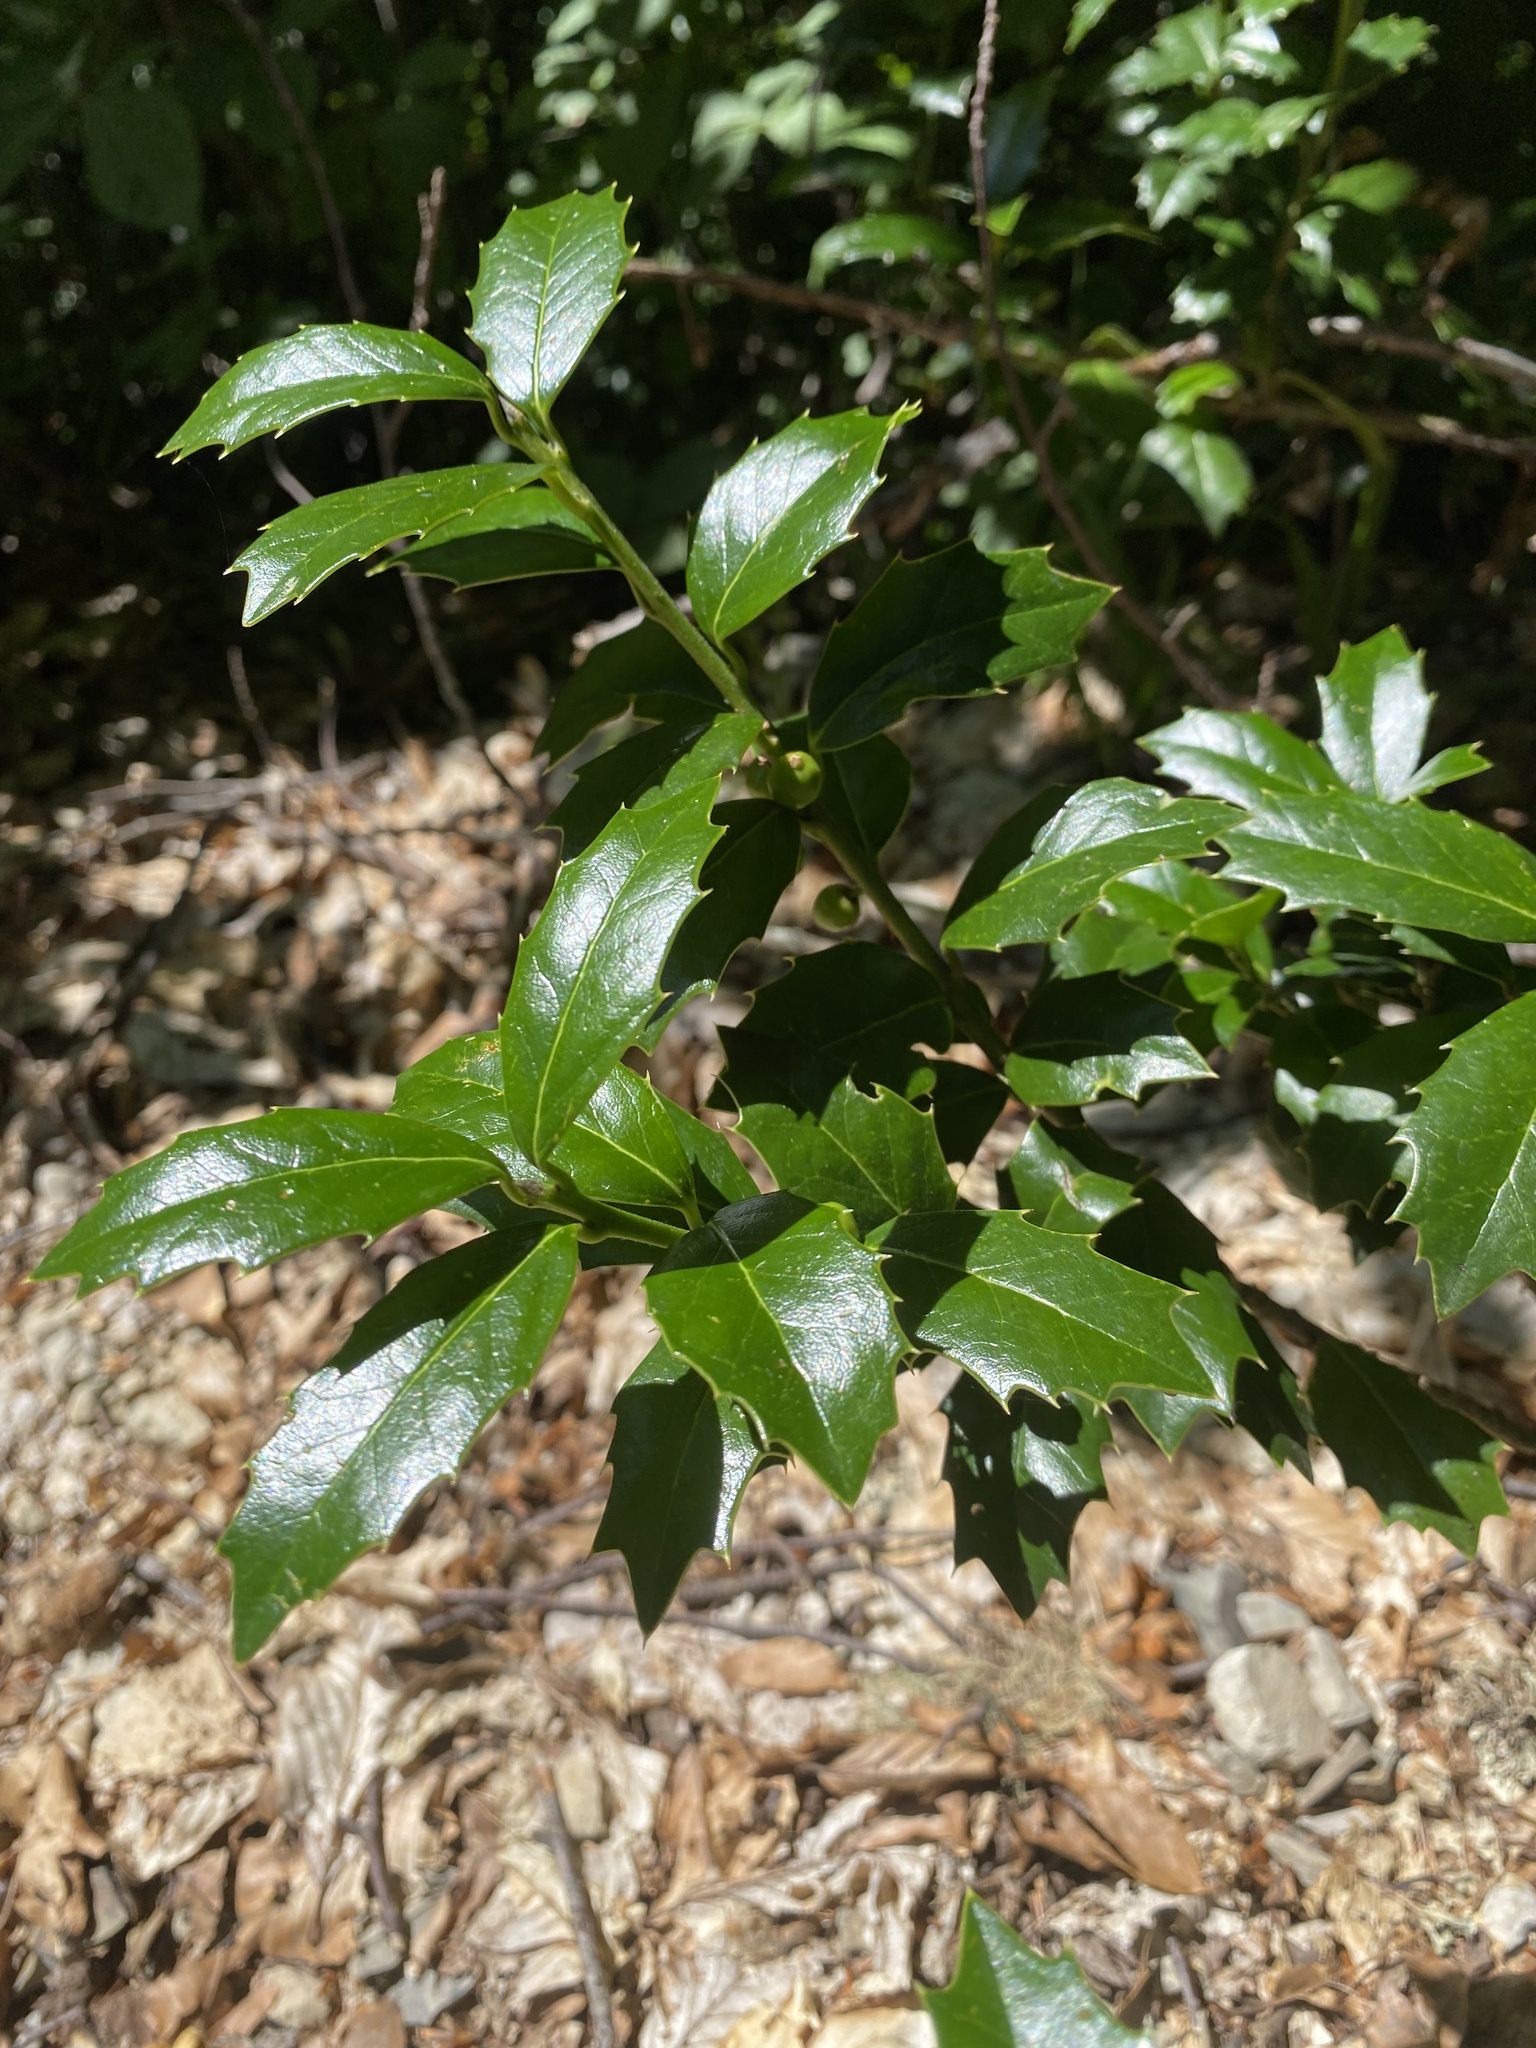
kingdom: Plantae
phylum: Tracheophyta
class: Magnoliopsida
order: Aquifoliales
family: Aquifoliaceae
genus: Ilex
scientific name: Ilex colchica
